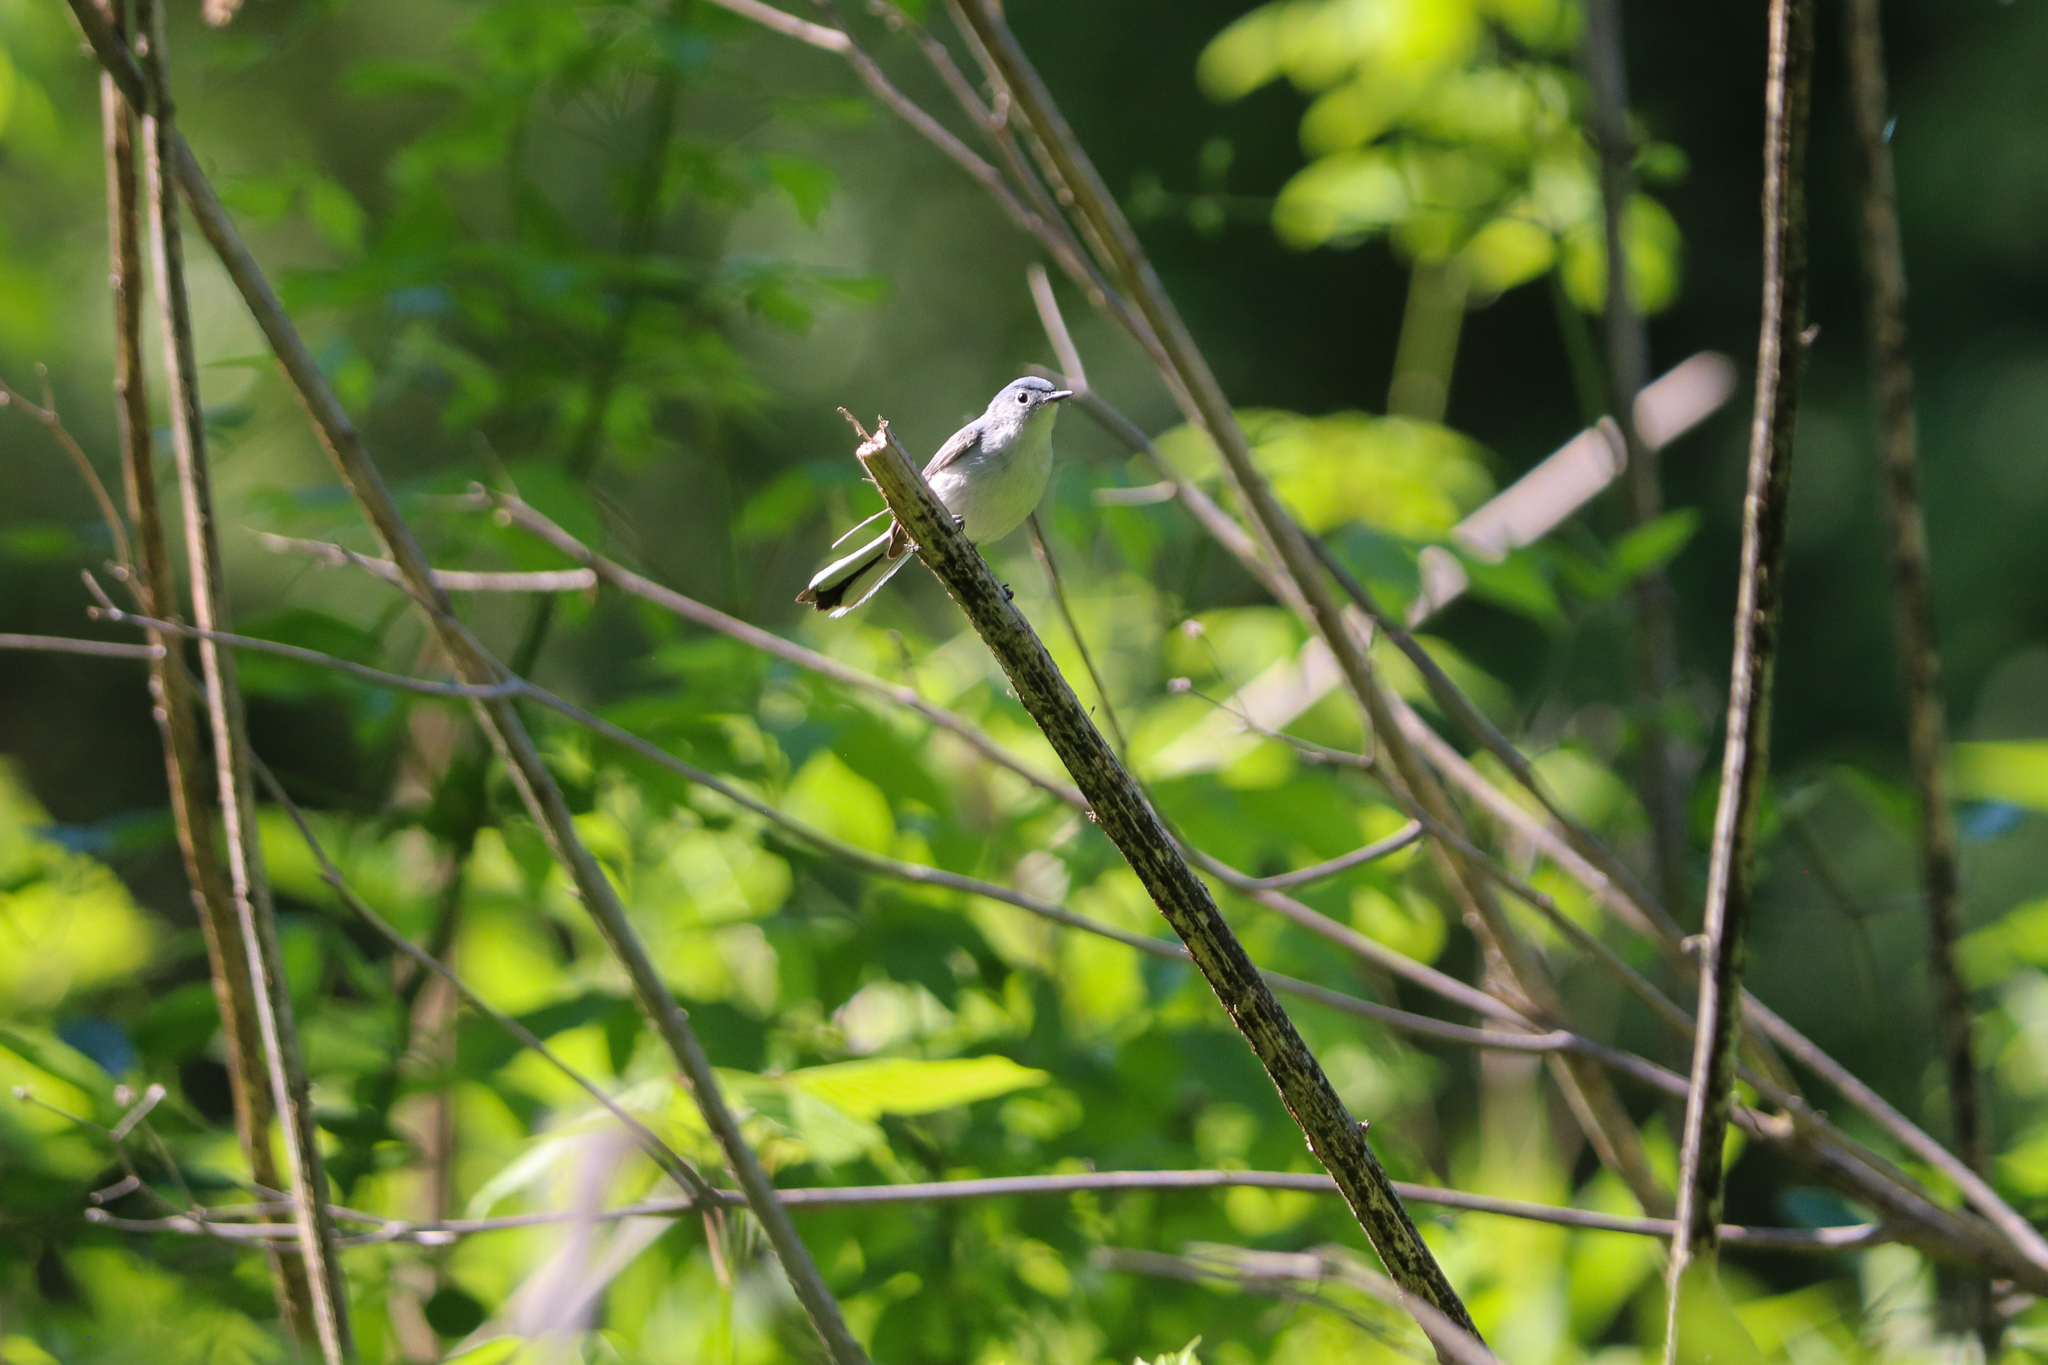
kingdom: Animalia
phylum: Chordata
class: Aves
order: Passeriformes
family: Polioptilidae
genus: Polioptila
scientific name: Polioptila caerulea
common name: Blue-gray gnatcatcher
